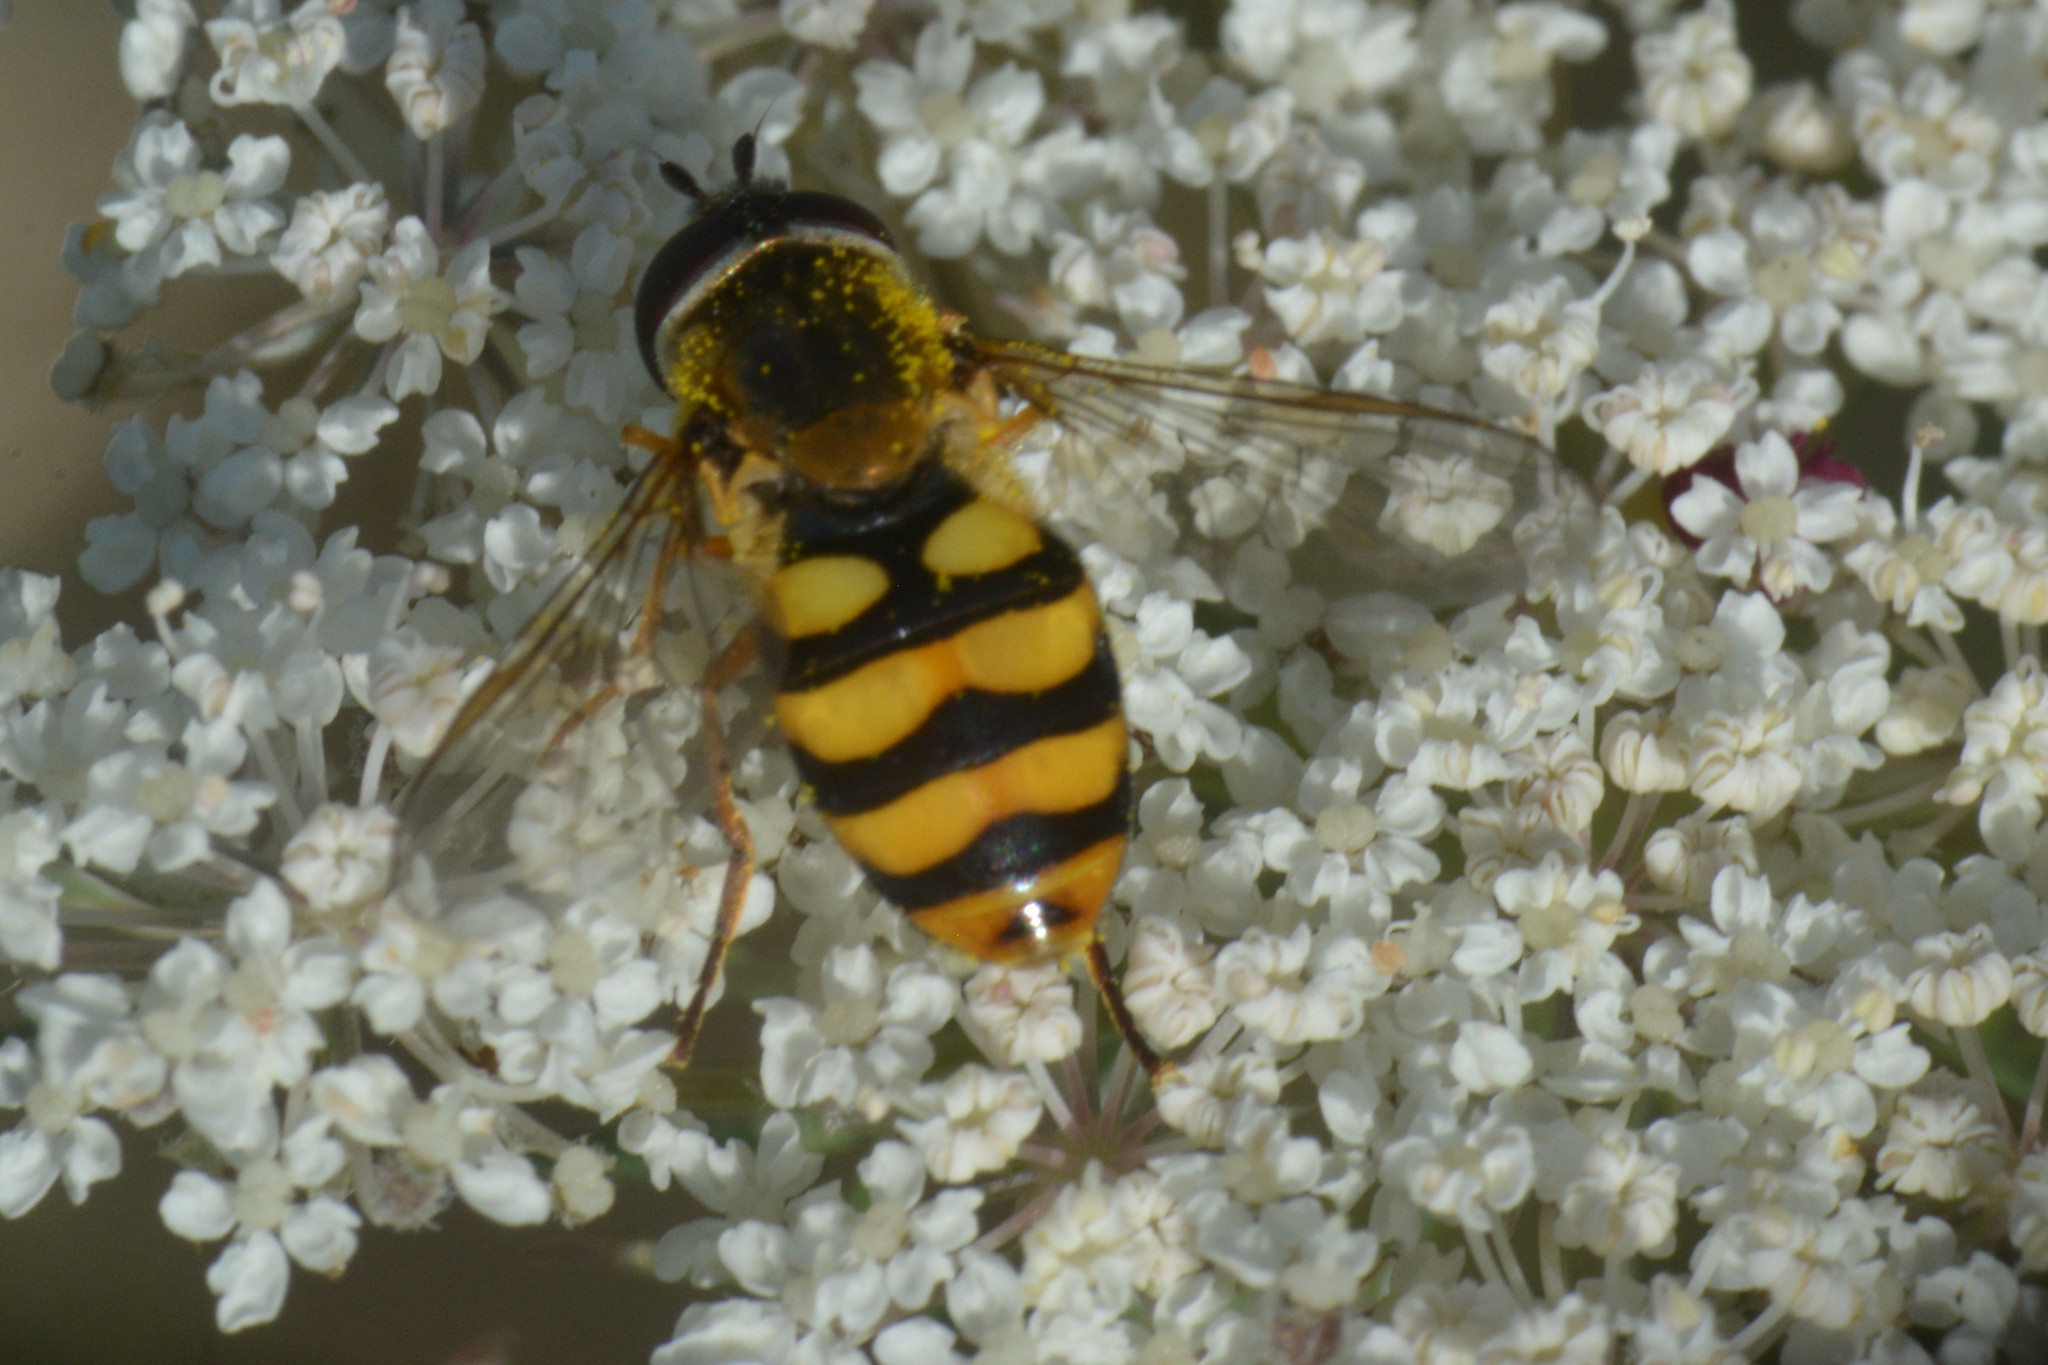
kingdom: Animalia
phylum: Arthropoda
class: Insecta
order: Diptera
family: Syrphidae
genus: Eupeodes
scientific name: Eupeodes latifasciatus
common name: Variable aphideater
